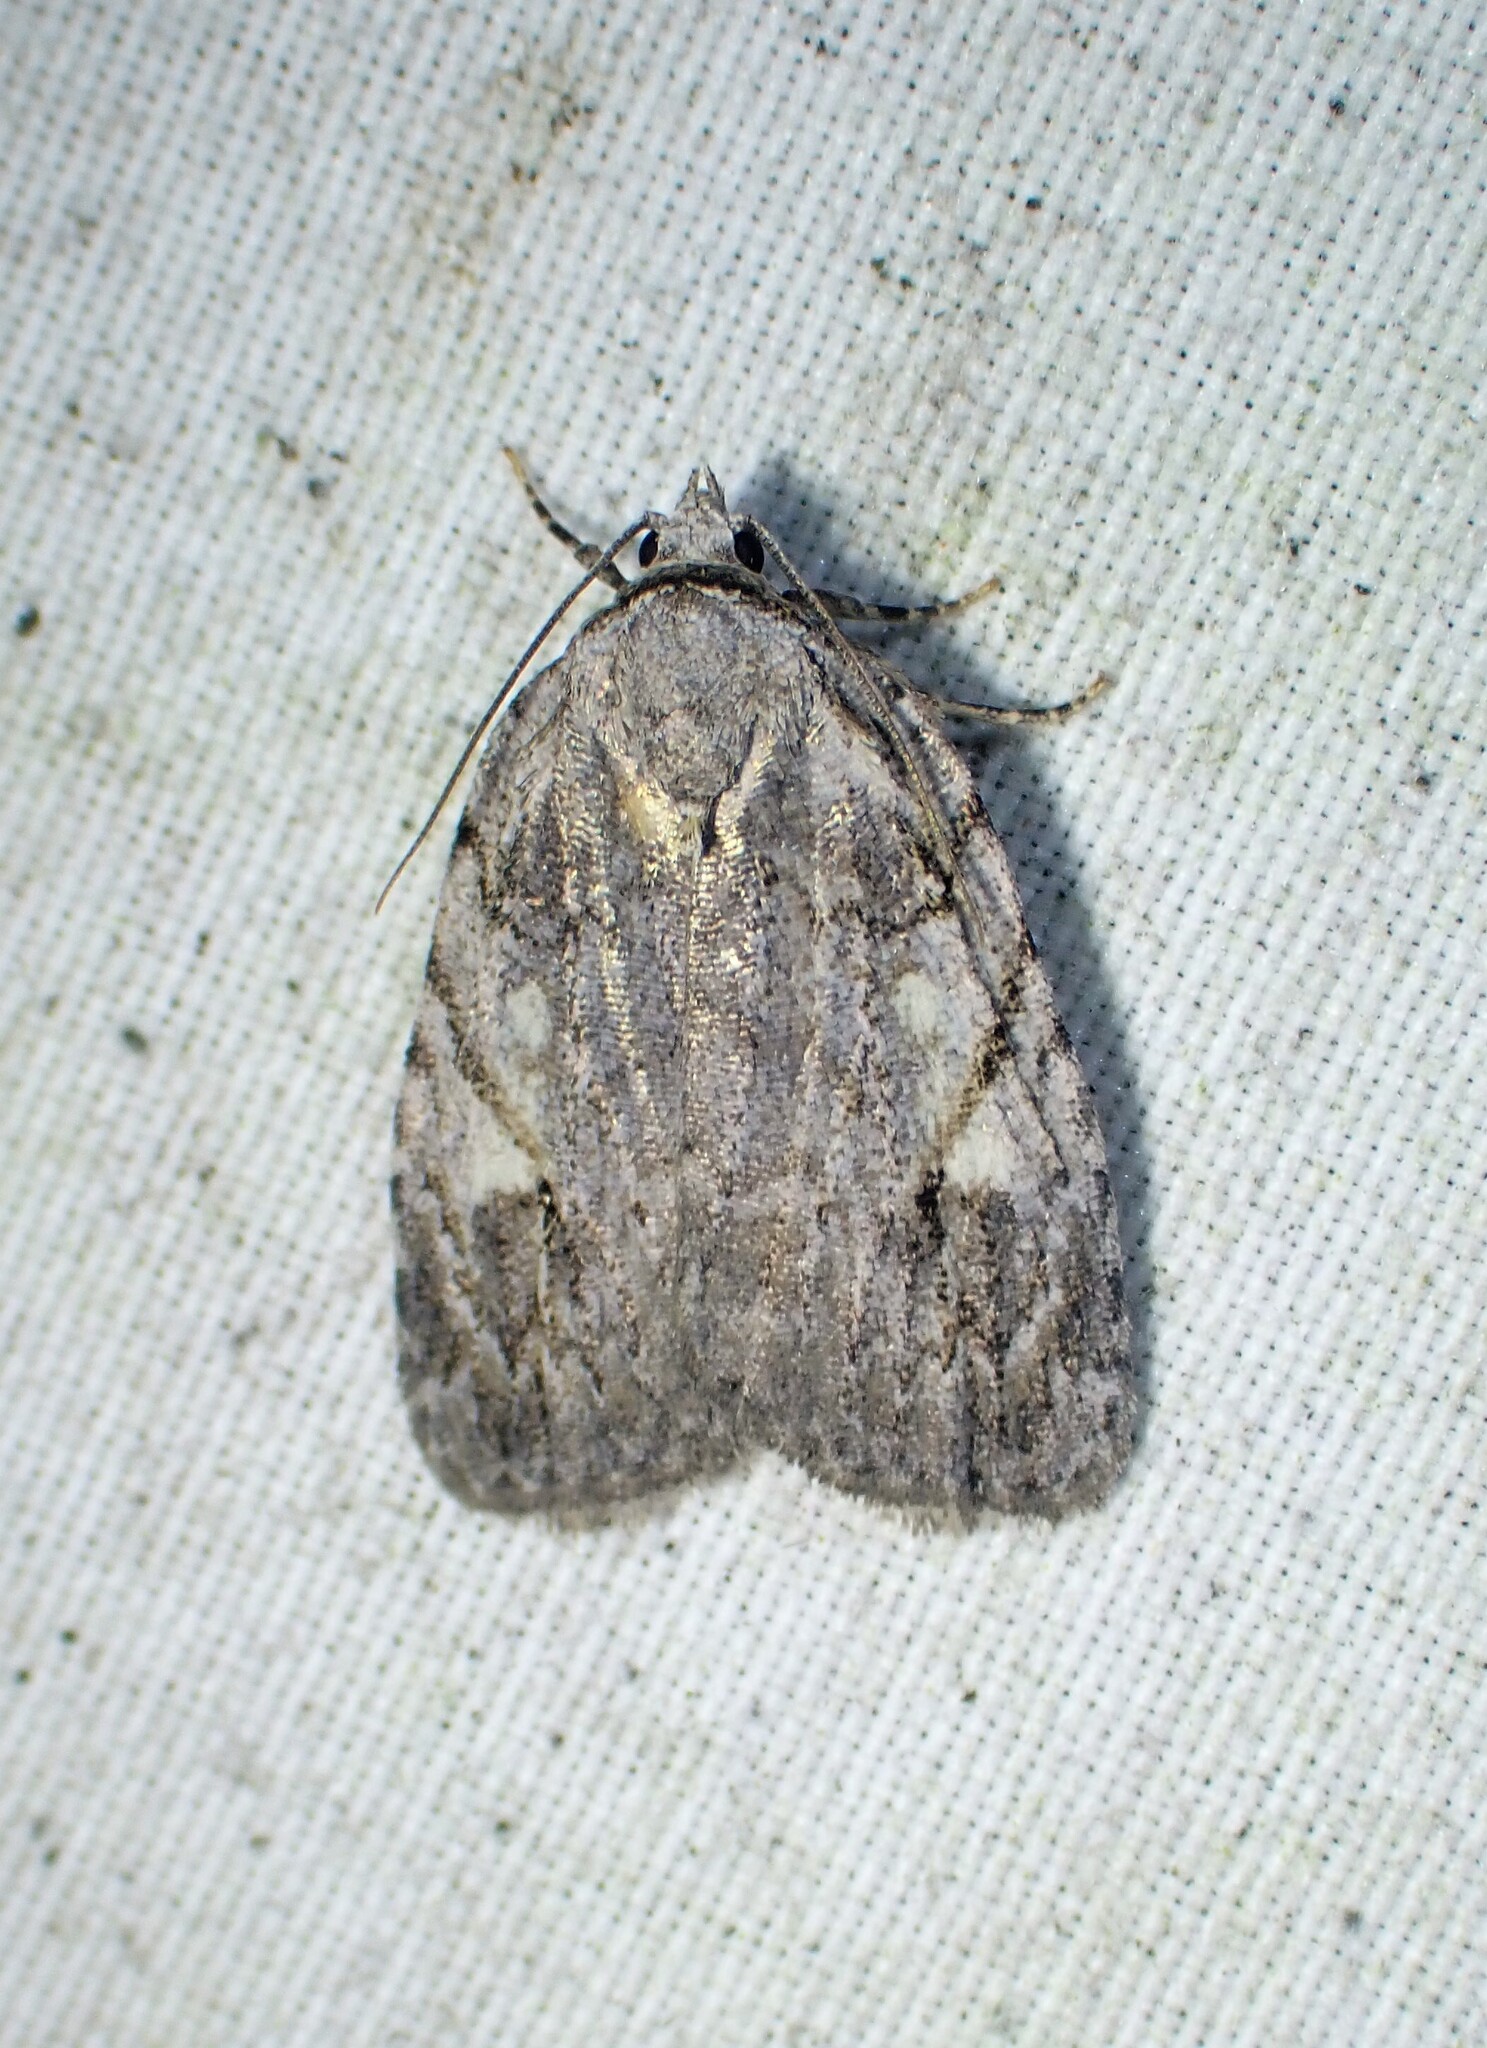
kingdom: Animalia
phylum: Arthropoda
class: Insecta
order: Lepidoptera
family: Noctuidae
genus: Balsa
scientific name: Balsa labecula
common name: White-blotched balsa moth
